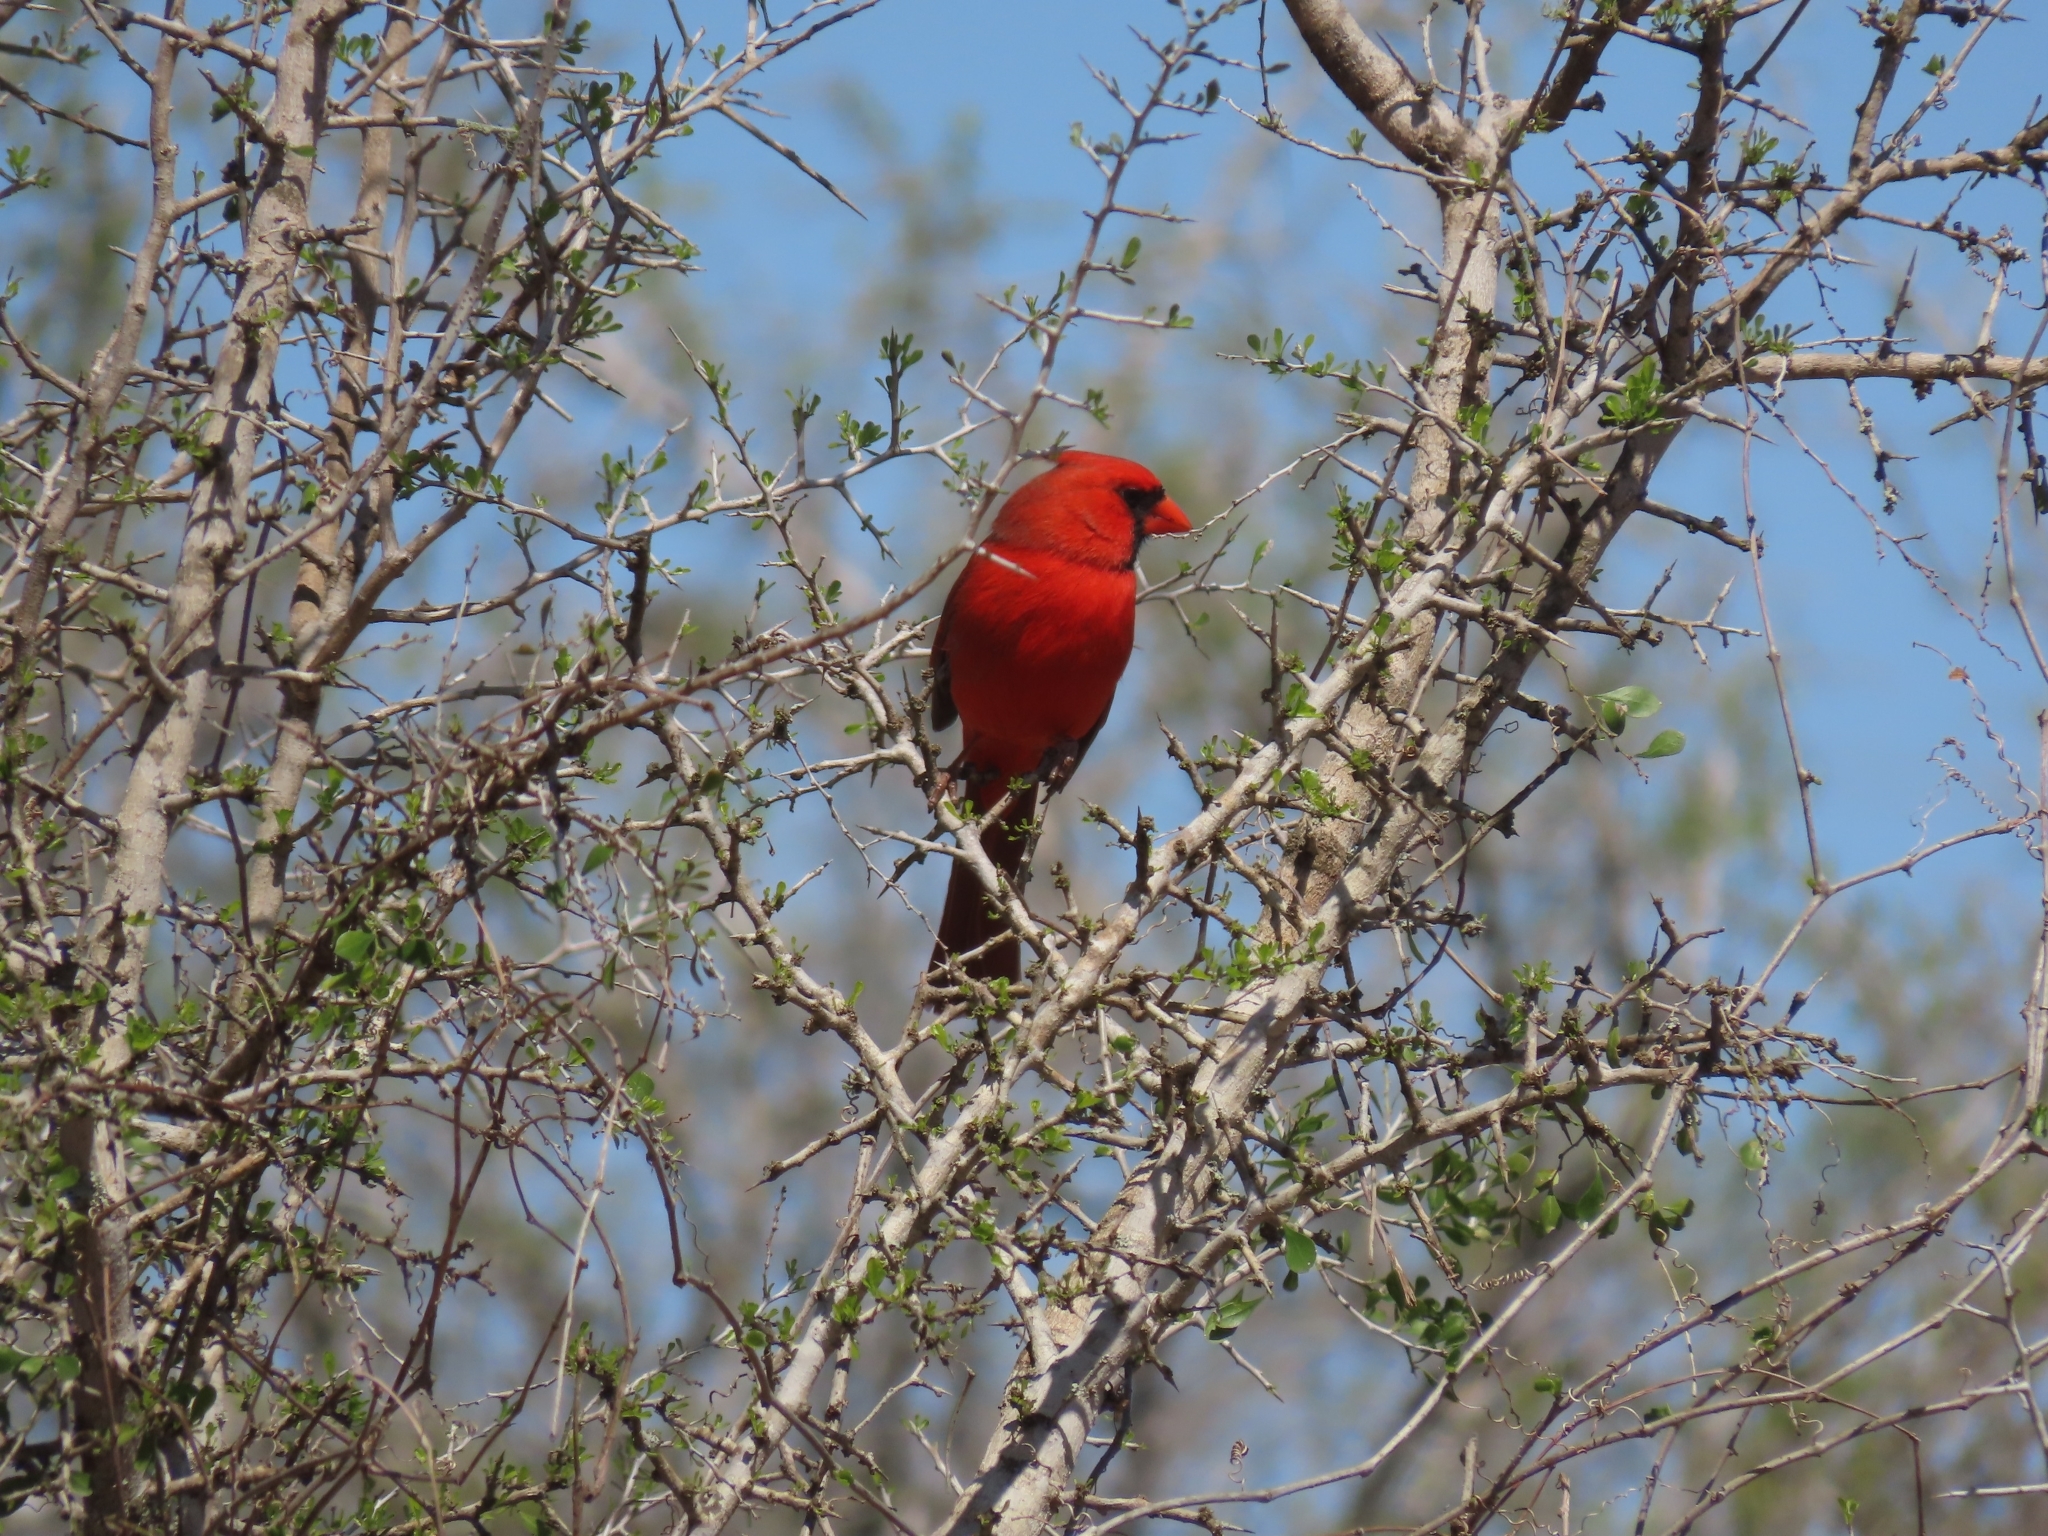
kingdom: Animalia
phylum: Chordata
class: Aves
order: Passeriformes
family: Cardinalidae
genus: Cardinalis
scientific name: Cardinalis cardinalis
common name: Northern cardinal
